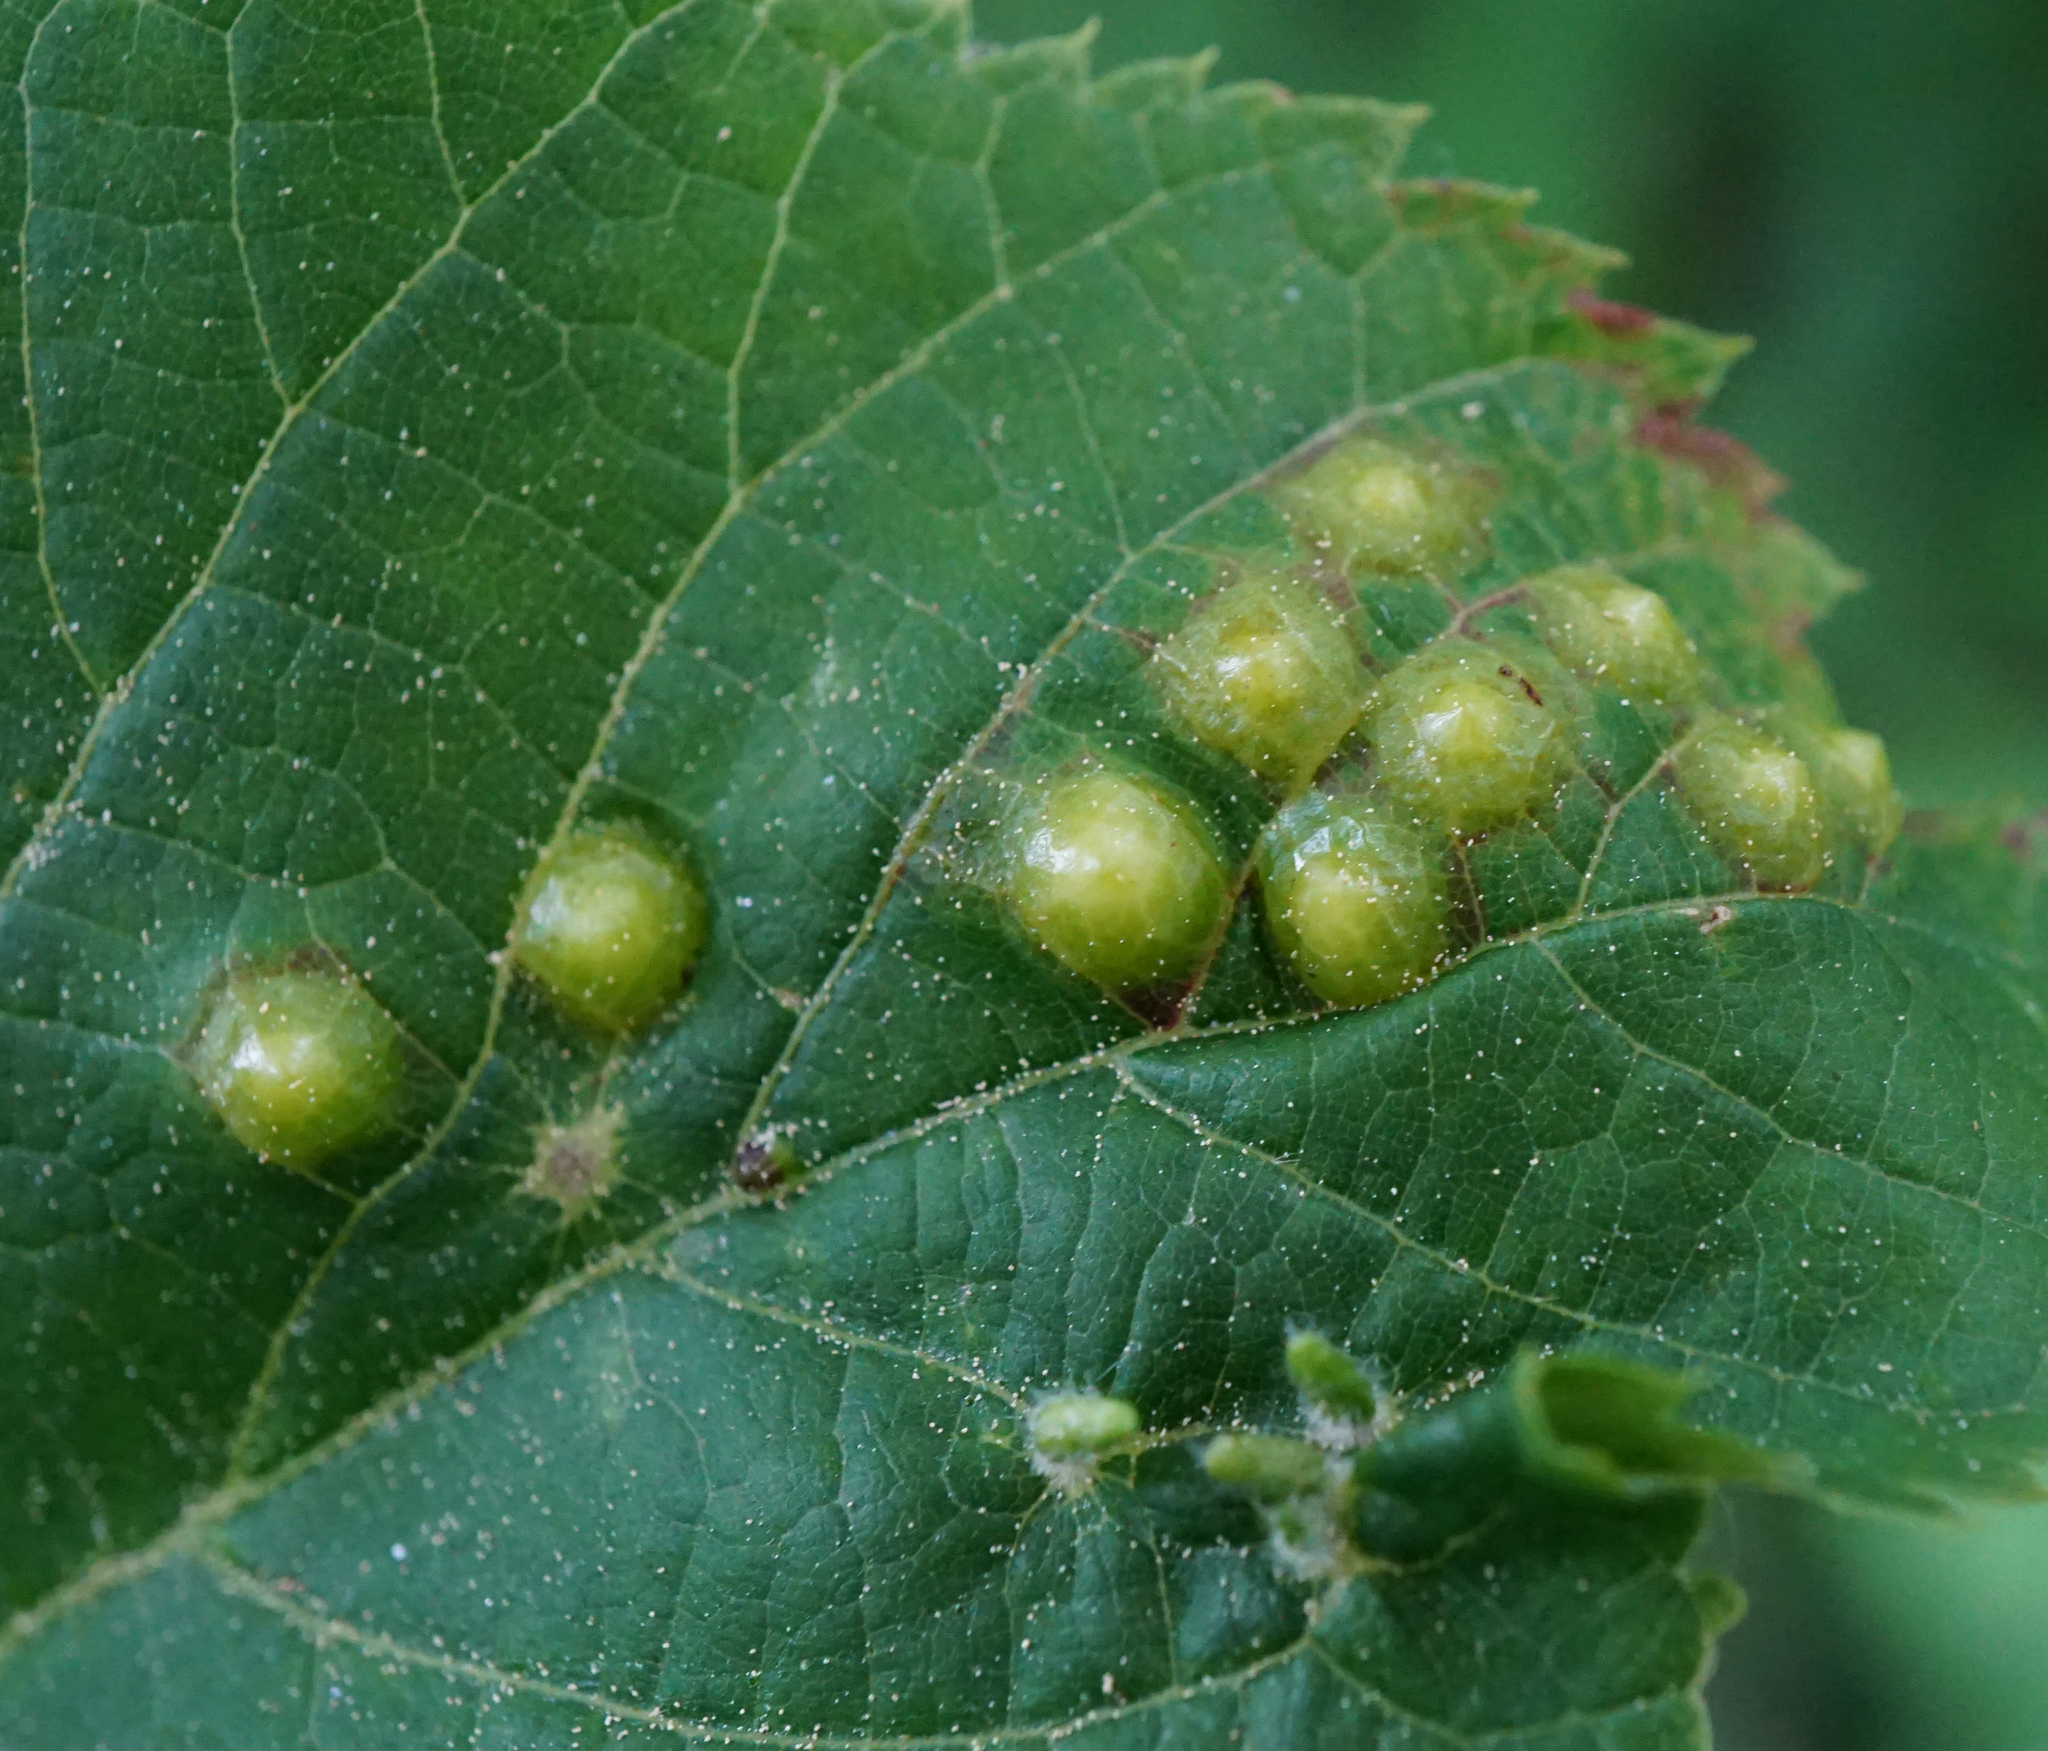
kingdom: Animalia
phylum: Arthropoda
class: Insecta
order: Diptera
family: Cecidomyiidae
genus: Didymomyia
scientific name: Didymomyia tiliacea
